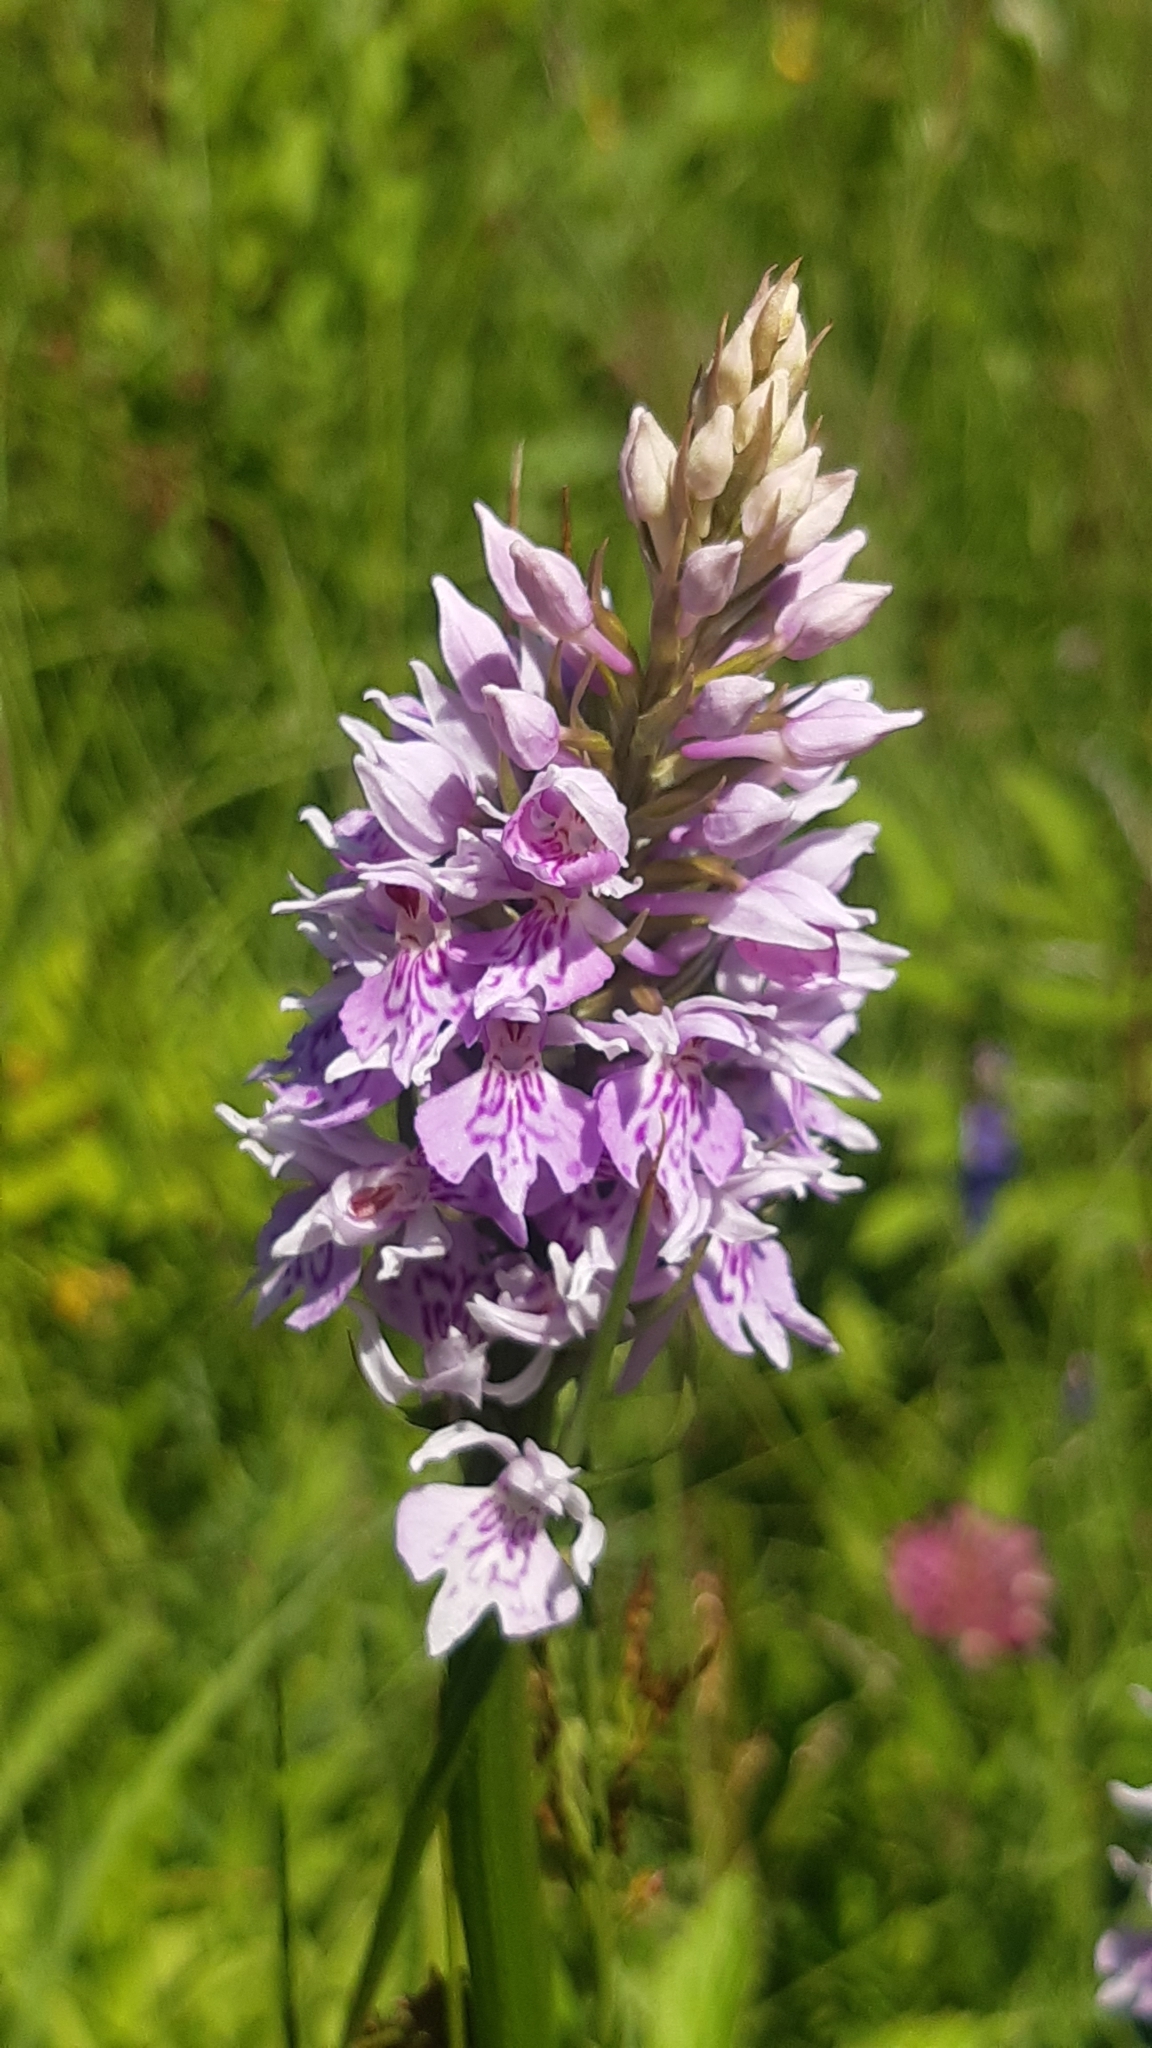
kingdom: Plantae
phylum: Tracheophyta
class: Liliopsida
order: Asparagales
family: Orchidaceae
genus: Dactylorhiza
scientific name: Dactylorhiza maculata
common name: Heath spotted-orchid
